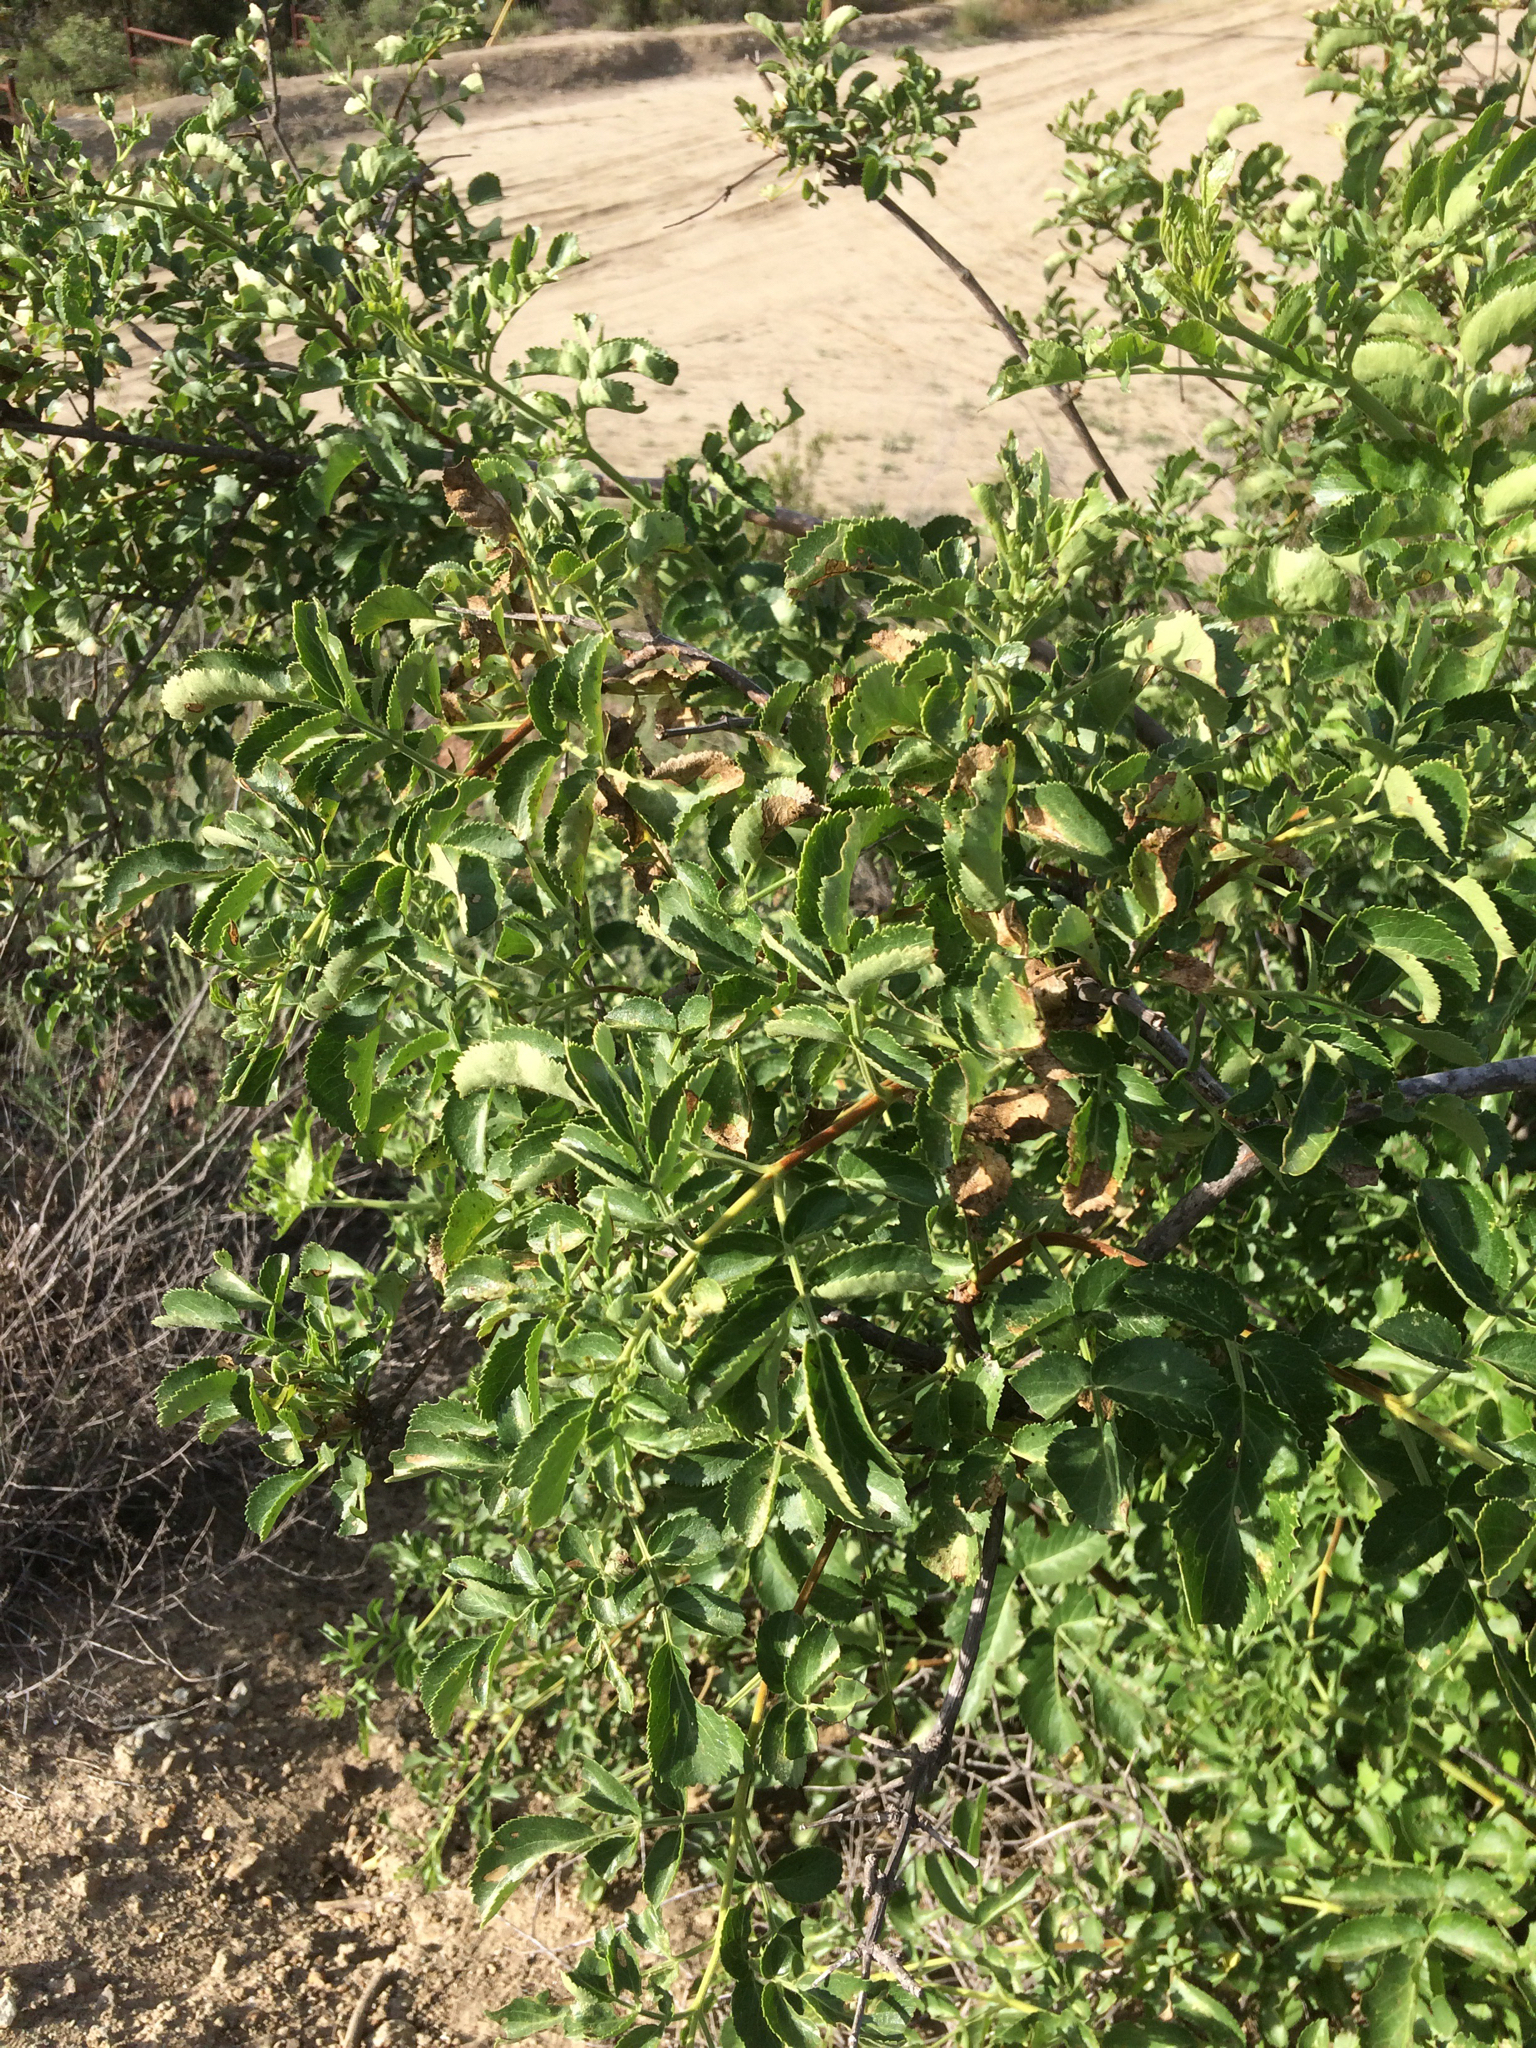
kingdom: Plantae
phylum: Tracheophyta
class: Magnoliopsida
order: Dipsacales
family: Viburnaceae
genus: Sambucus
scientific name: Sambucus cerulea
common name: Blue elder
